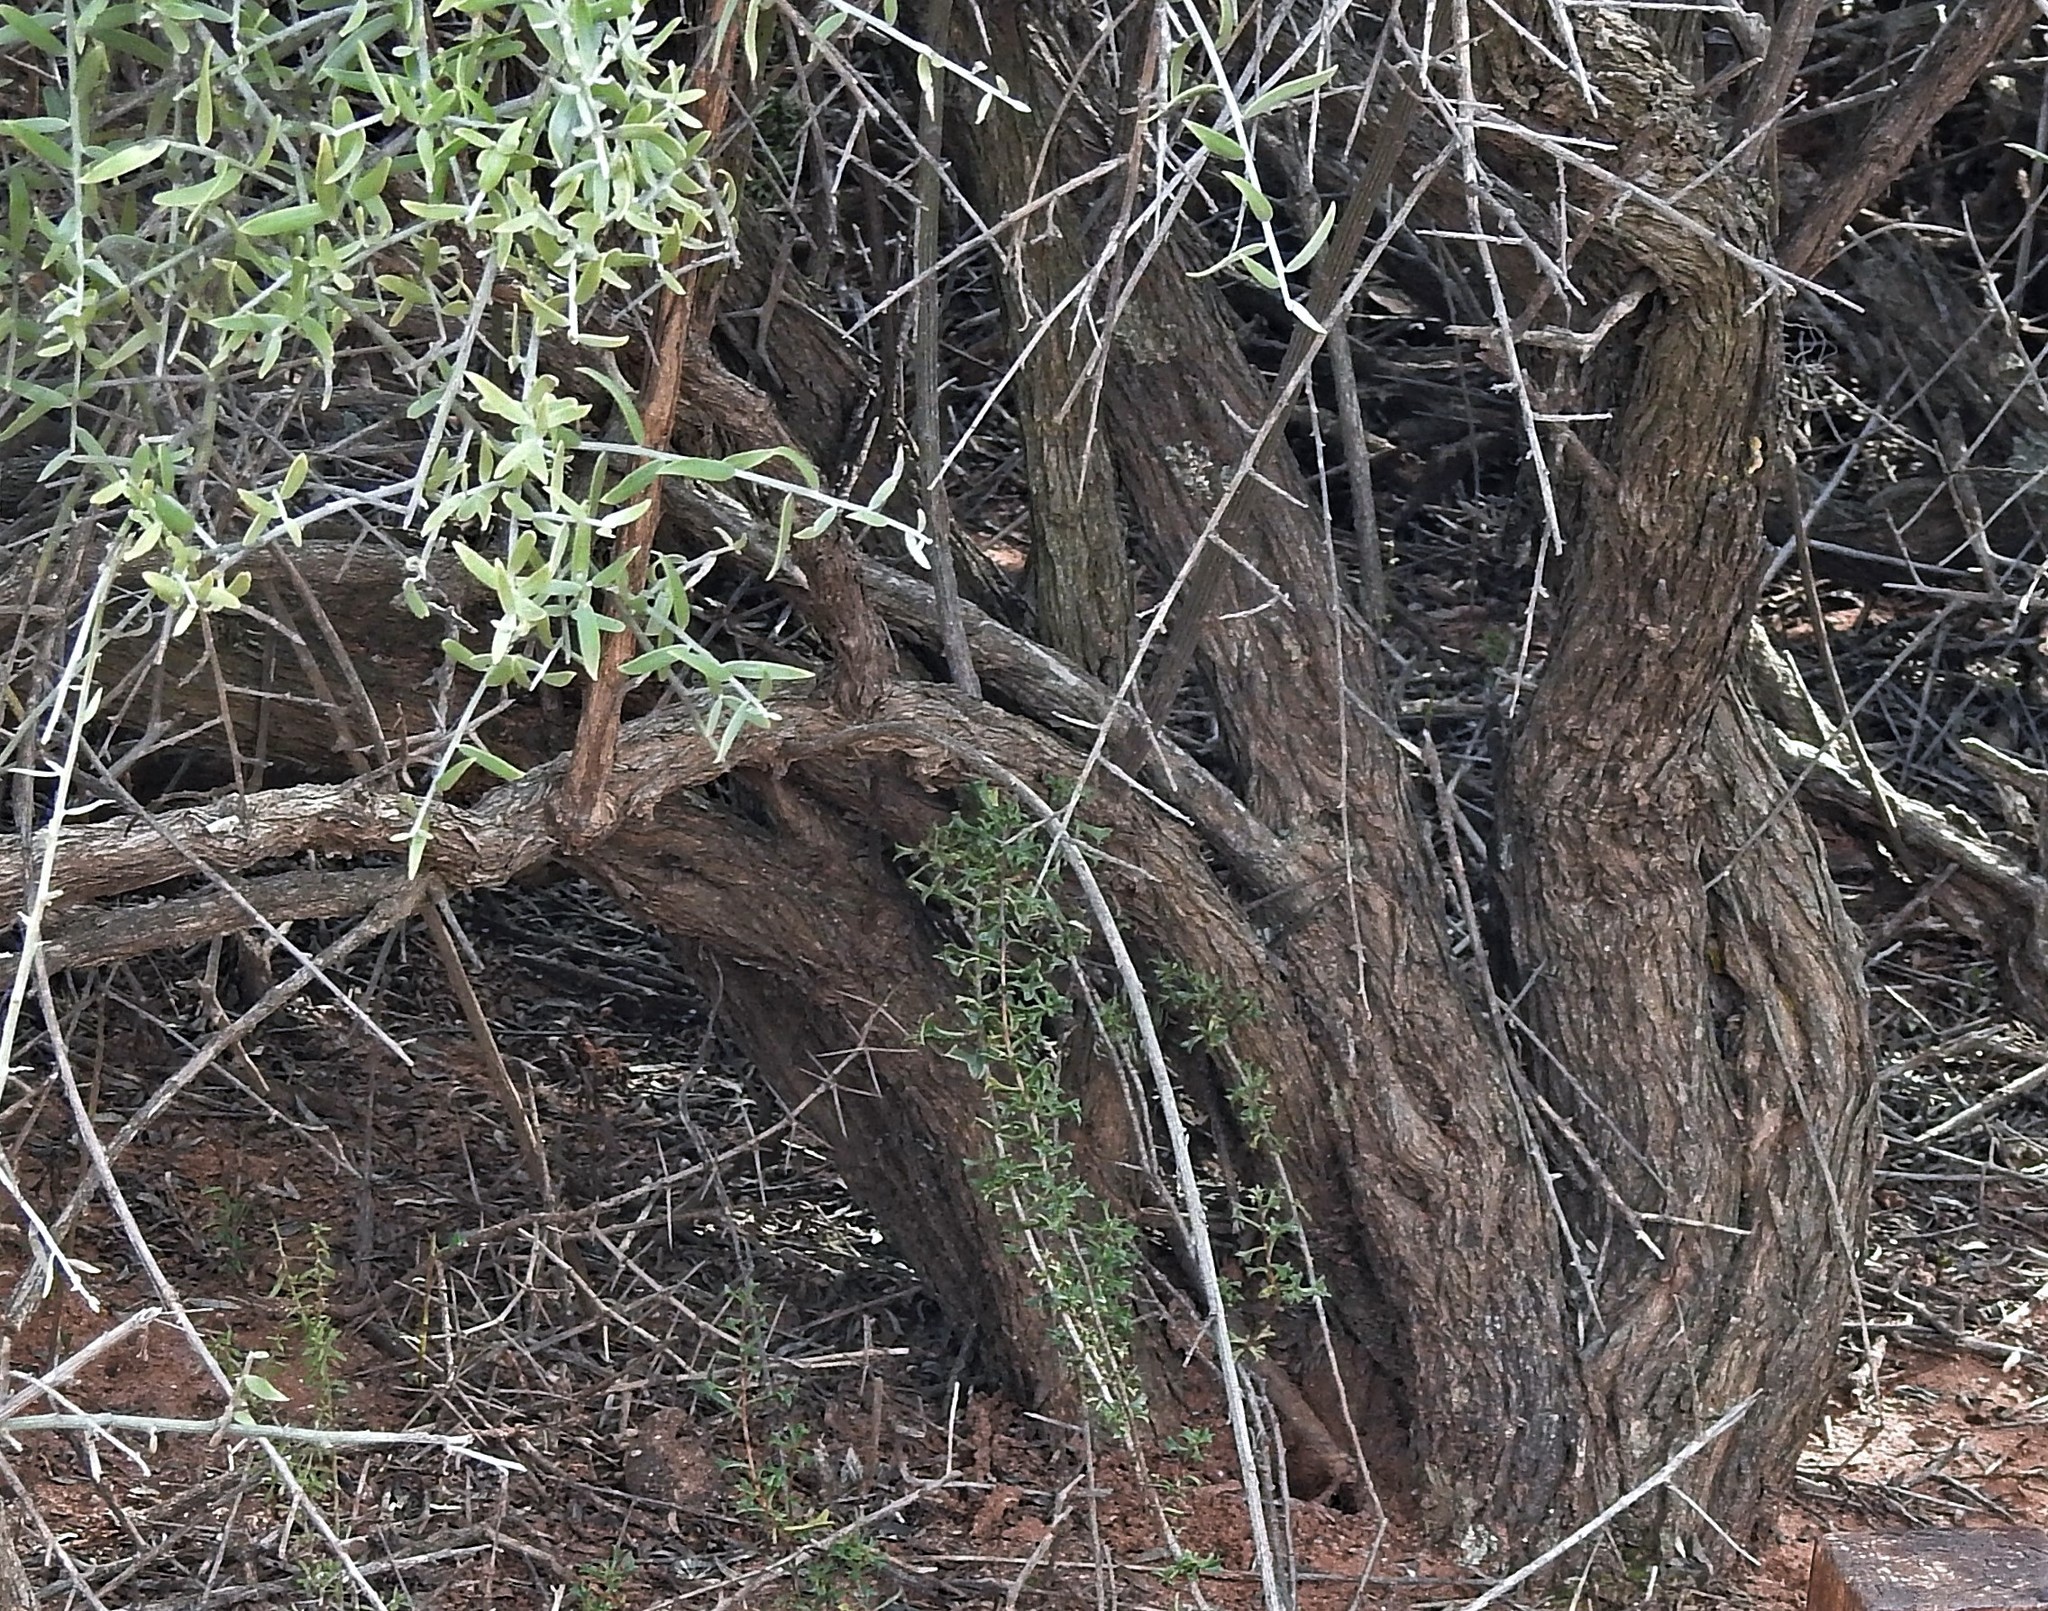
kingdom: Plantae
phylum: Tracheophyta
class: Magnoliopsida
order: Asterales
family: Asteraceae
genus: Cyclolepis
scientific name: Cyclolepis genistoides
